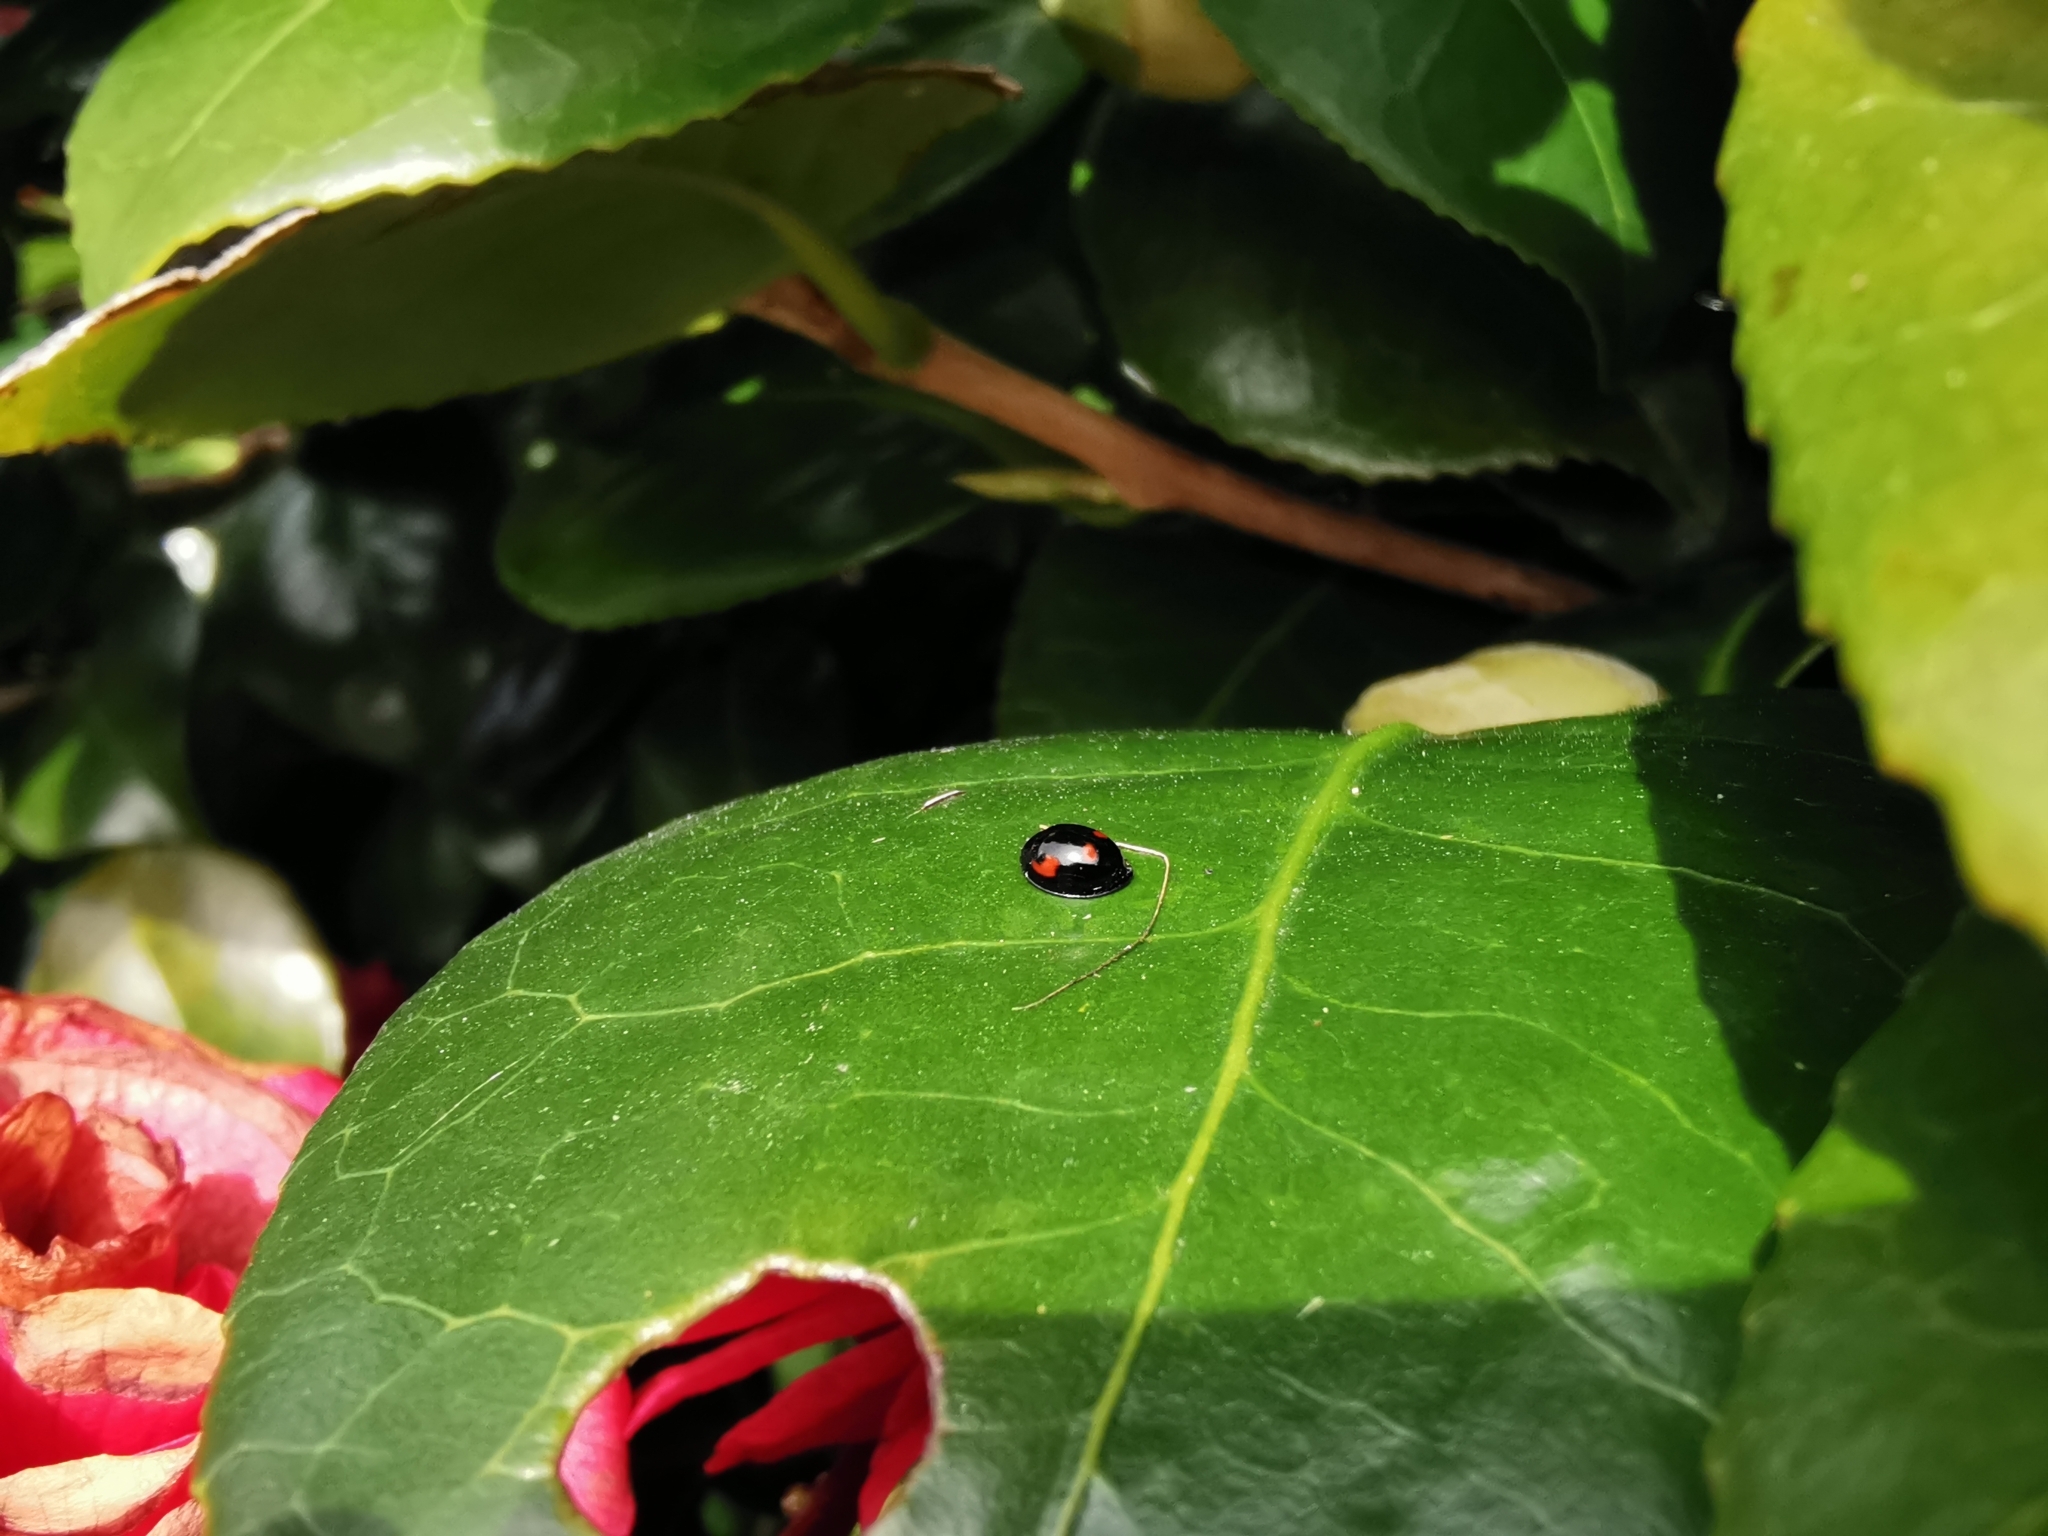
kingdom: Animalia
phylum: Arthropoda
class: Insecta
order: Coleoptera
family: Coccinellidae
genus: Brumus
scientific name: Brumus quadripustulatus
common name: Ladybird beetle
